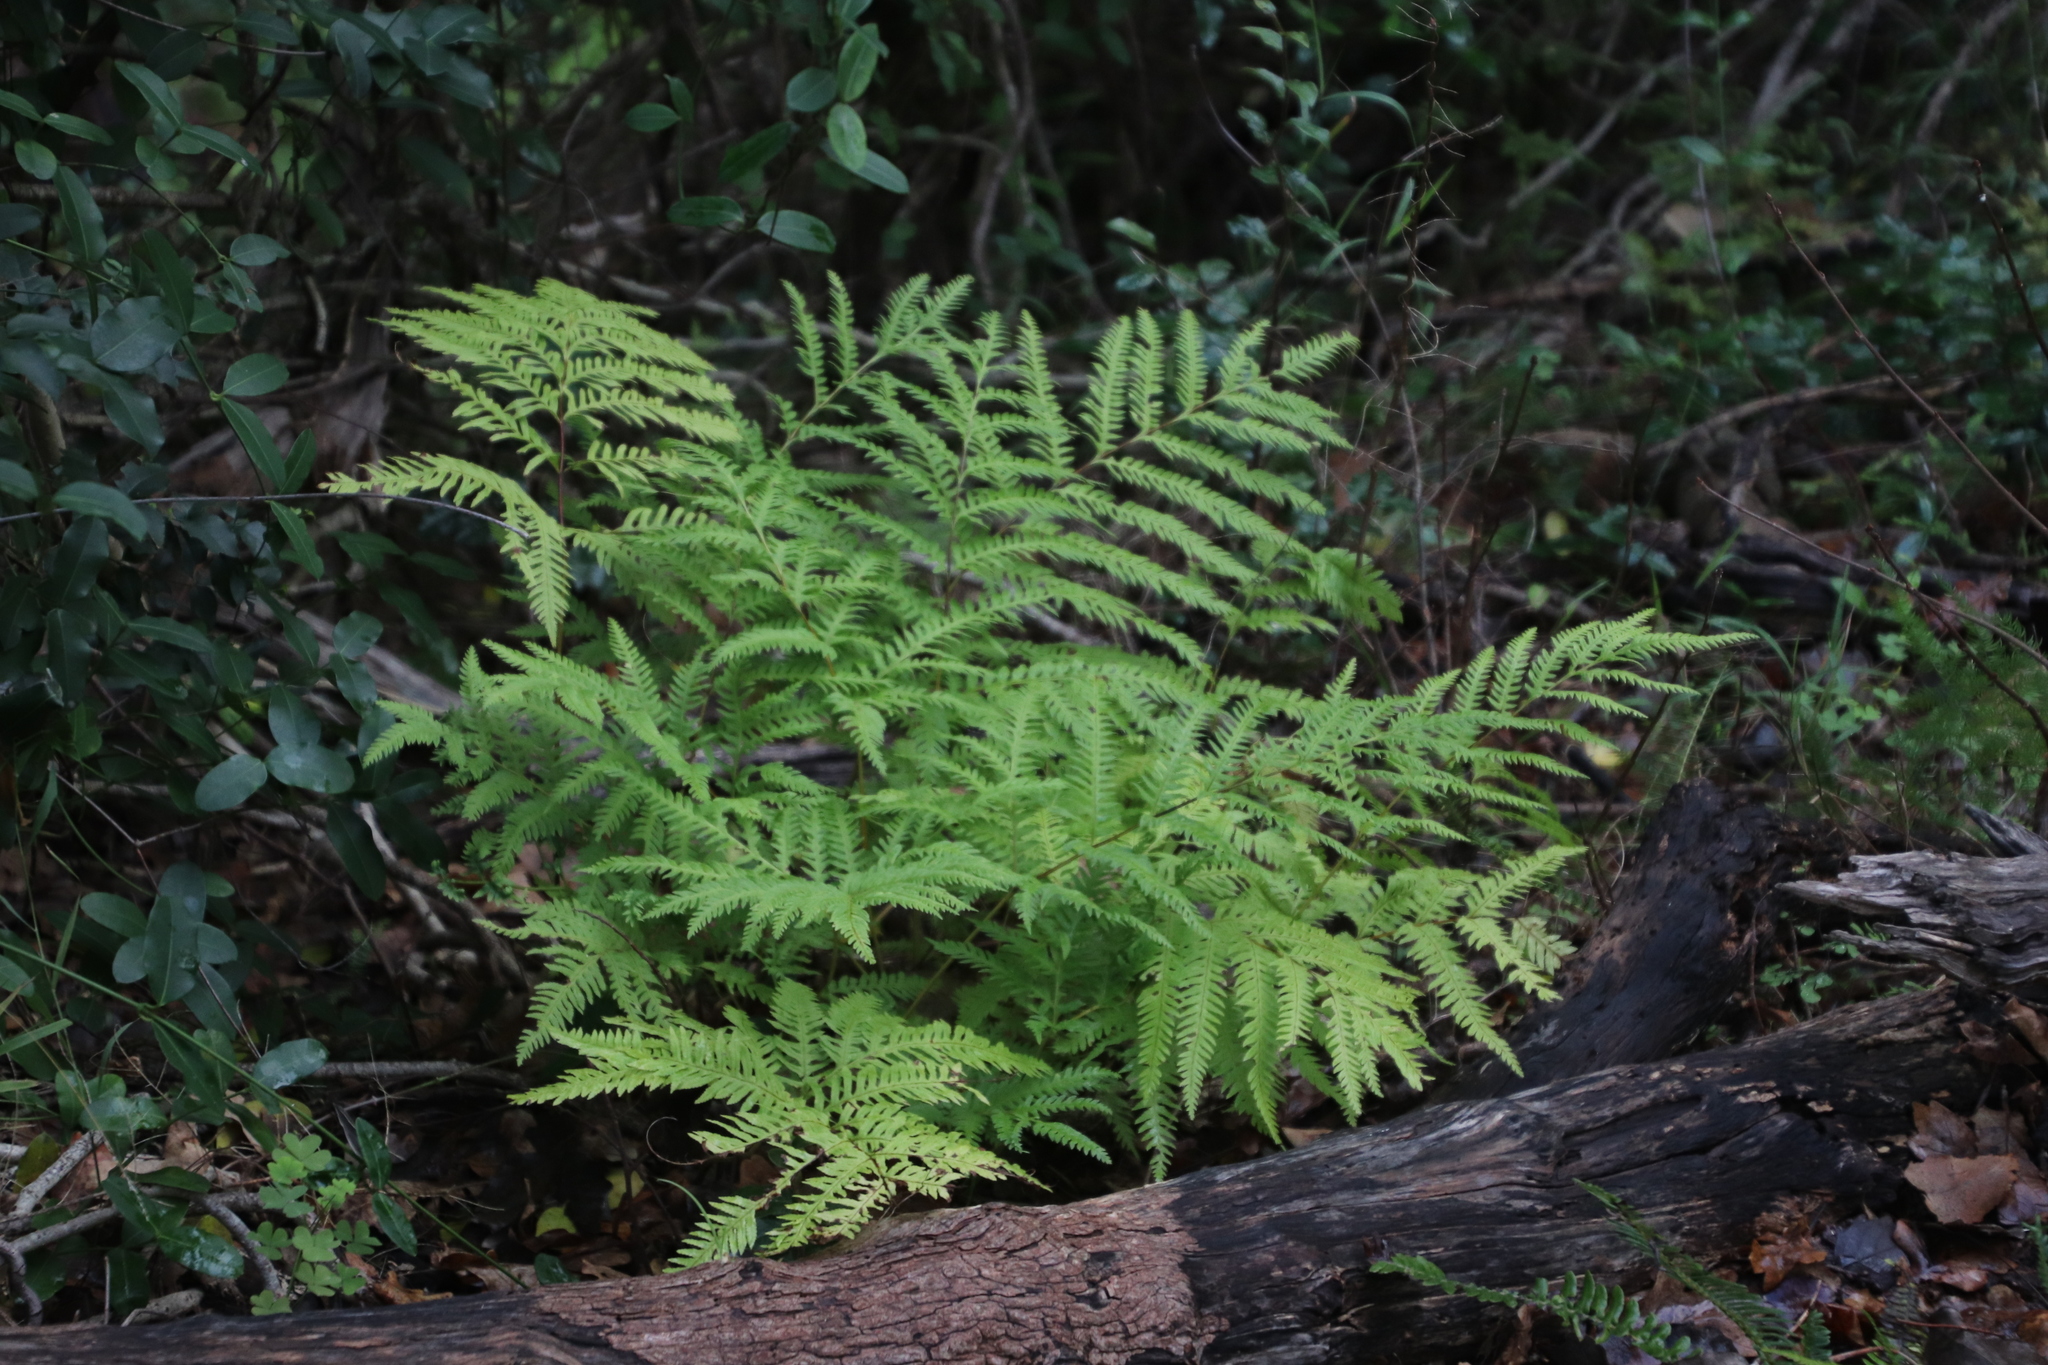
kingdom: Plantae
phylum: Tracheophyta
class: Polypodiopsida
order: Polypodiales
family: Pteridaceae
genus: Pteris
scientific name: Pteris dentata
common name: Toothed brake
